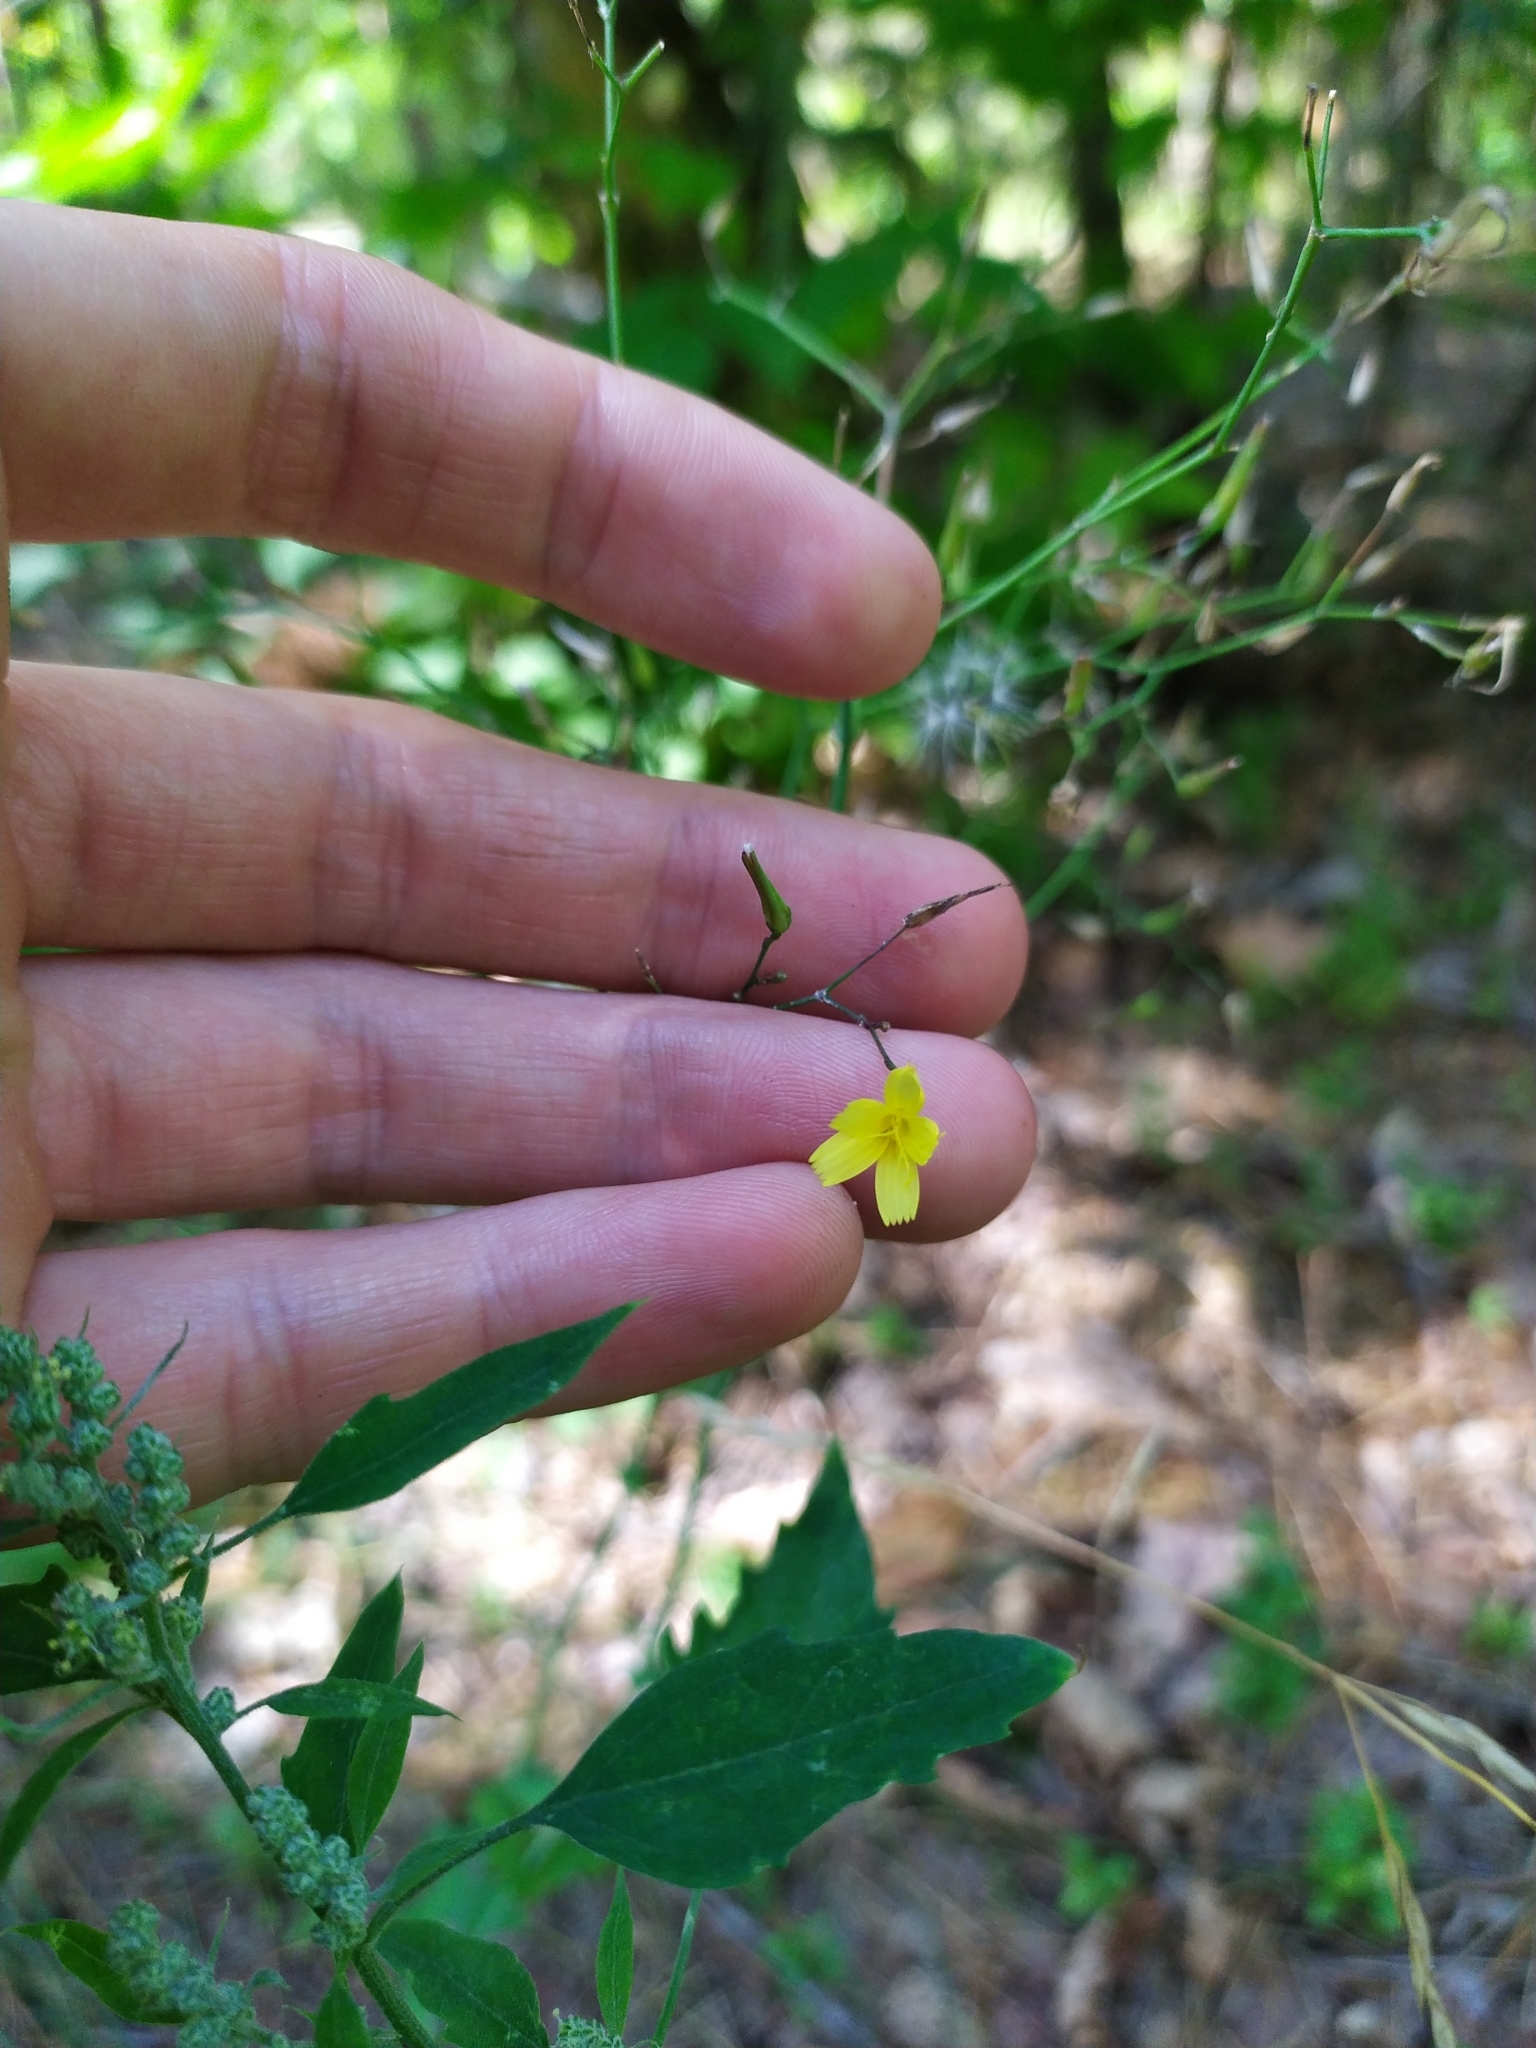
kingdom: Plantae
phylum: Tracheophyta
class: Magnoliopsida
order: Asterales
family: Asteraceae
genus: Mycelis
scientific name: Mycelis muralis
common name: Wall lettuce
